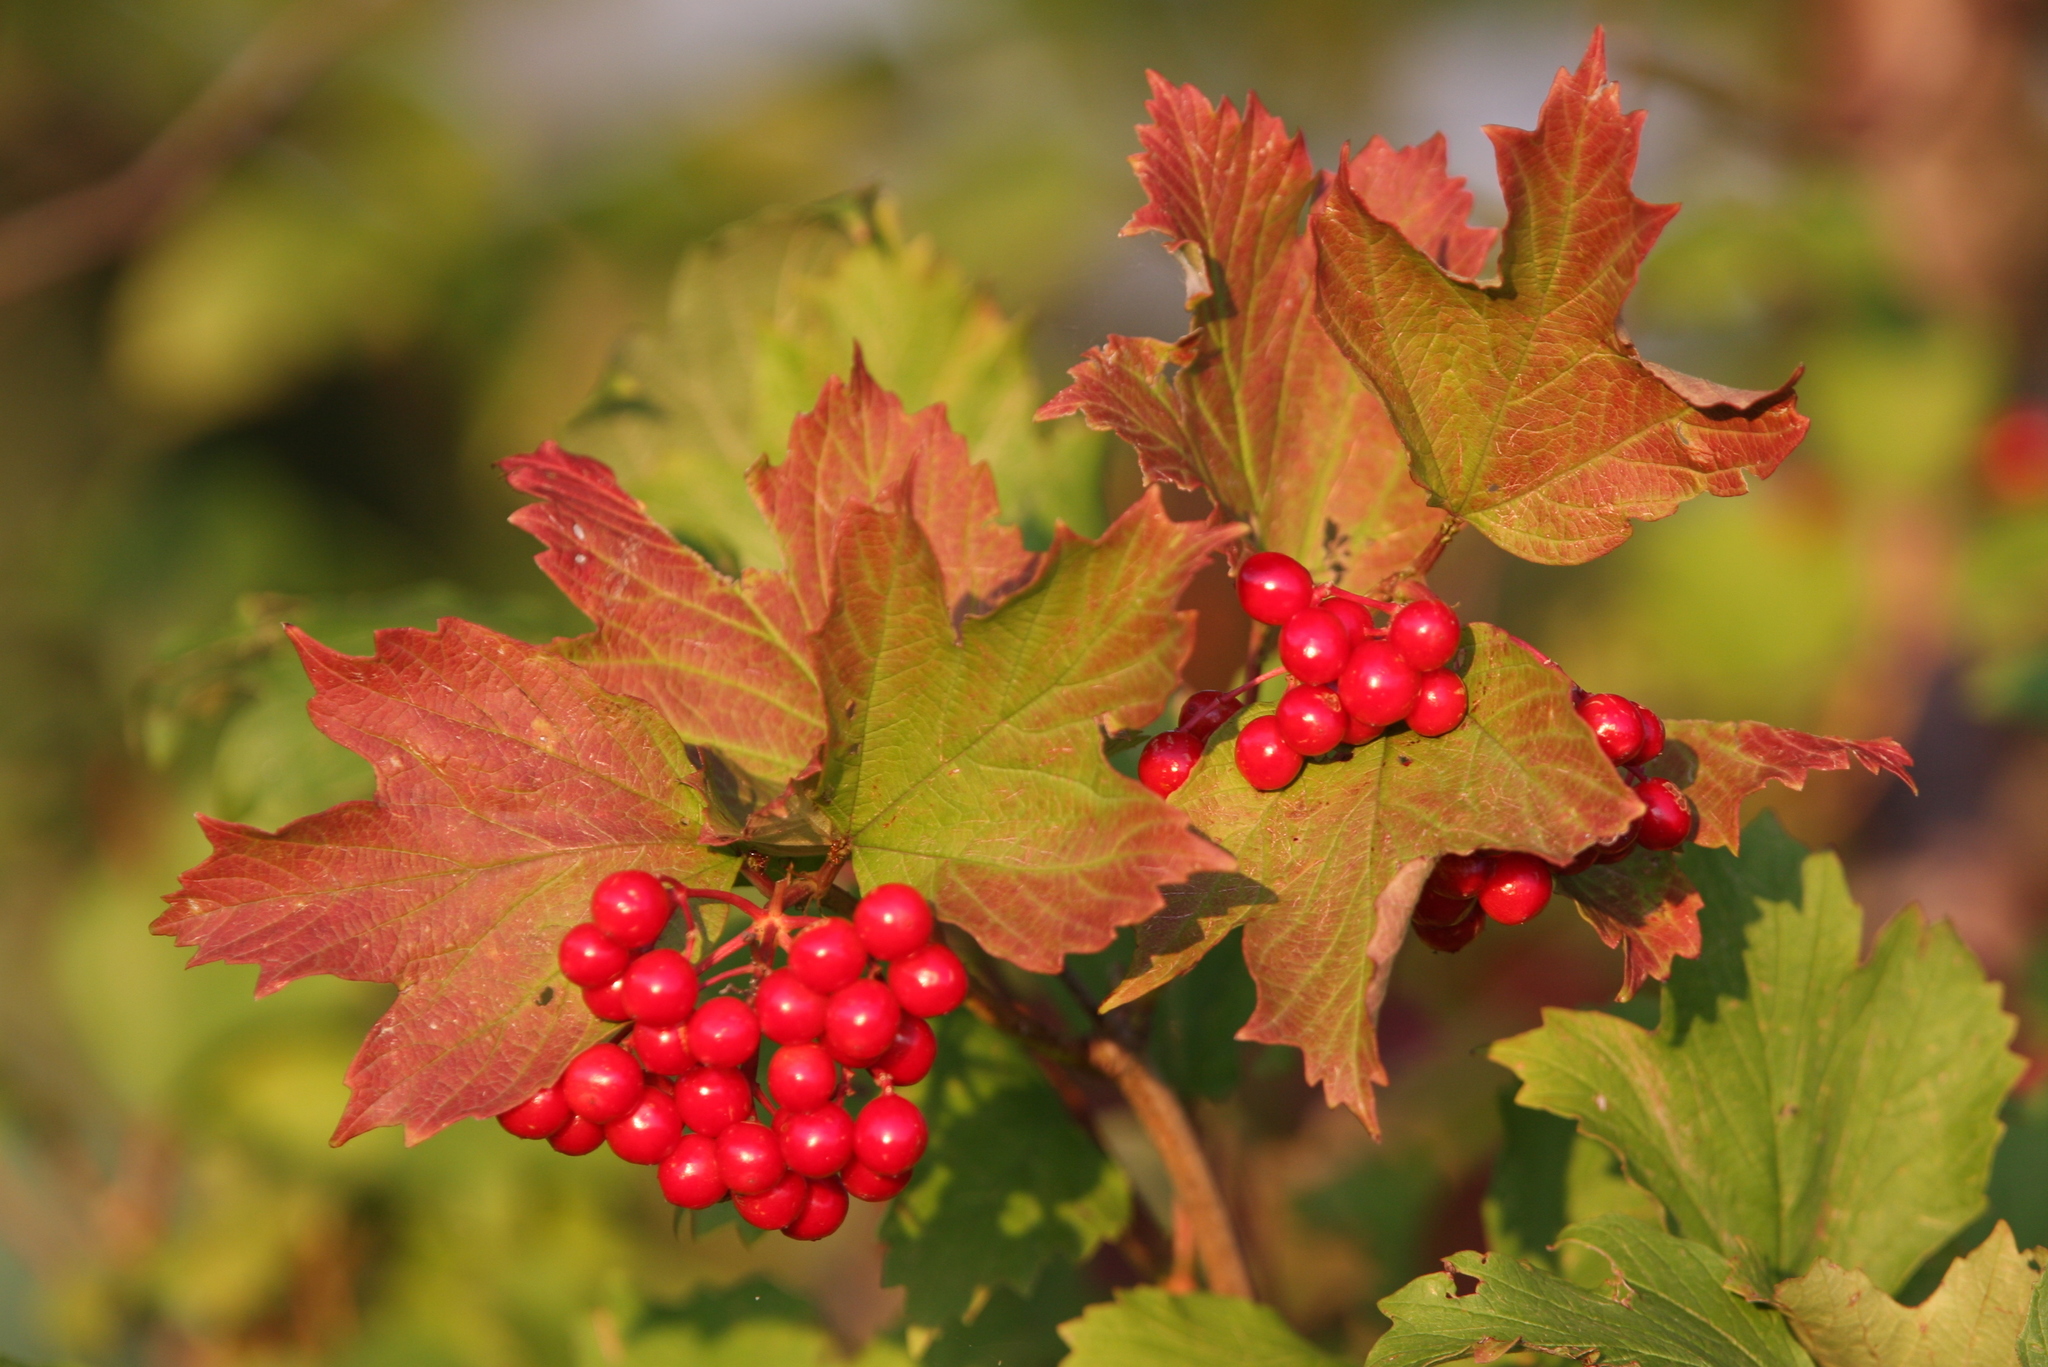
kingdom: Plantae
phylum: Tracheophyta
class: Magnoliopsida
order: Dipsacales
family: Viburnaceae
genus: Viburnum
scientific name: Viburnum opulus
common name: Guelder-rose
